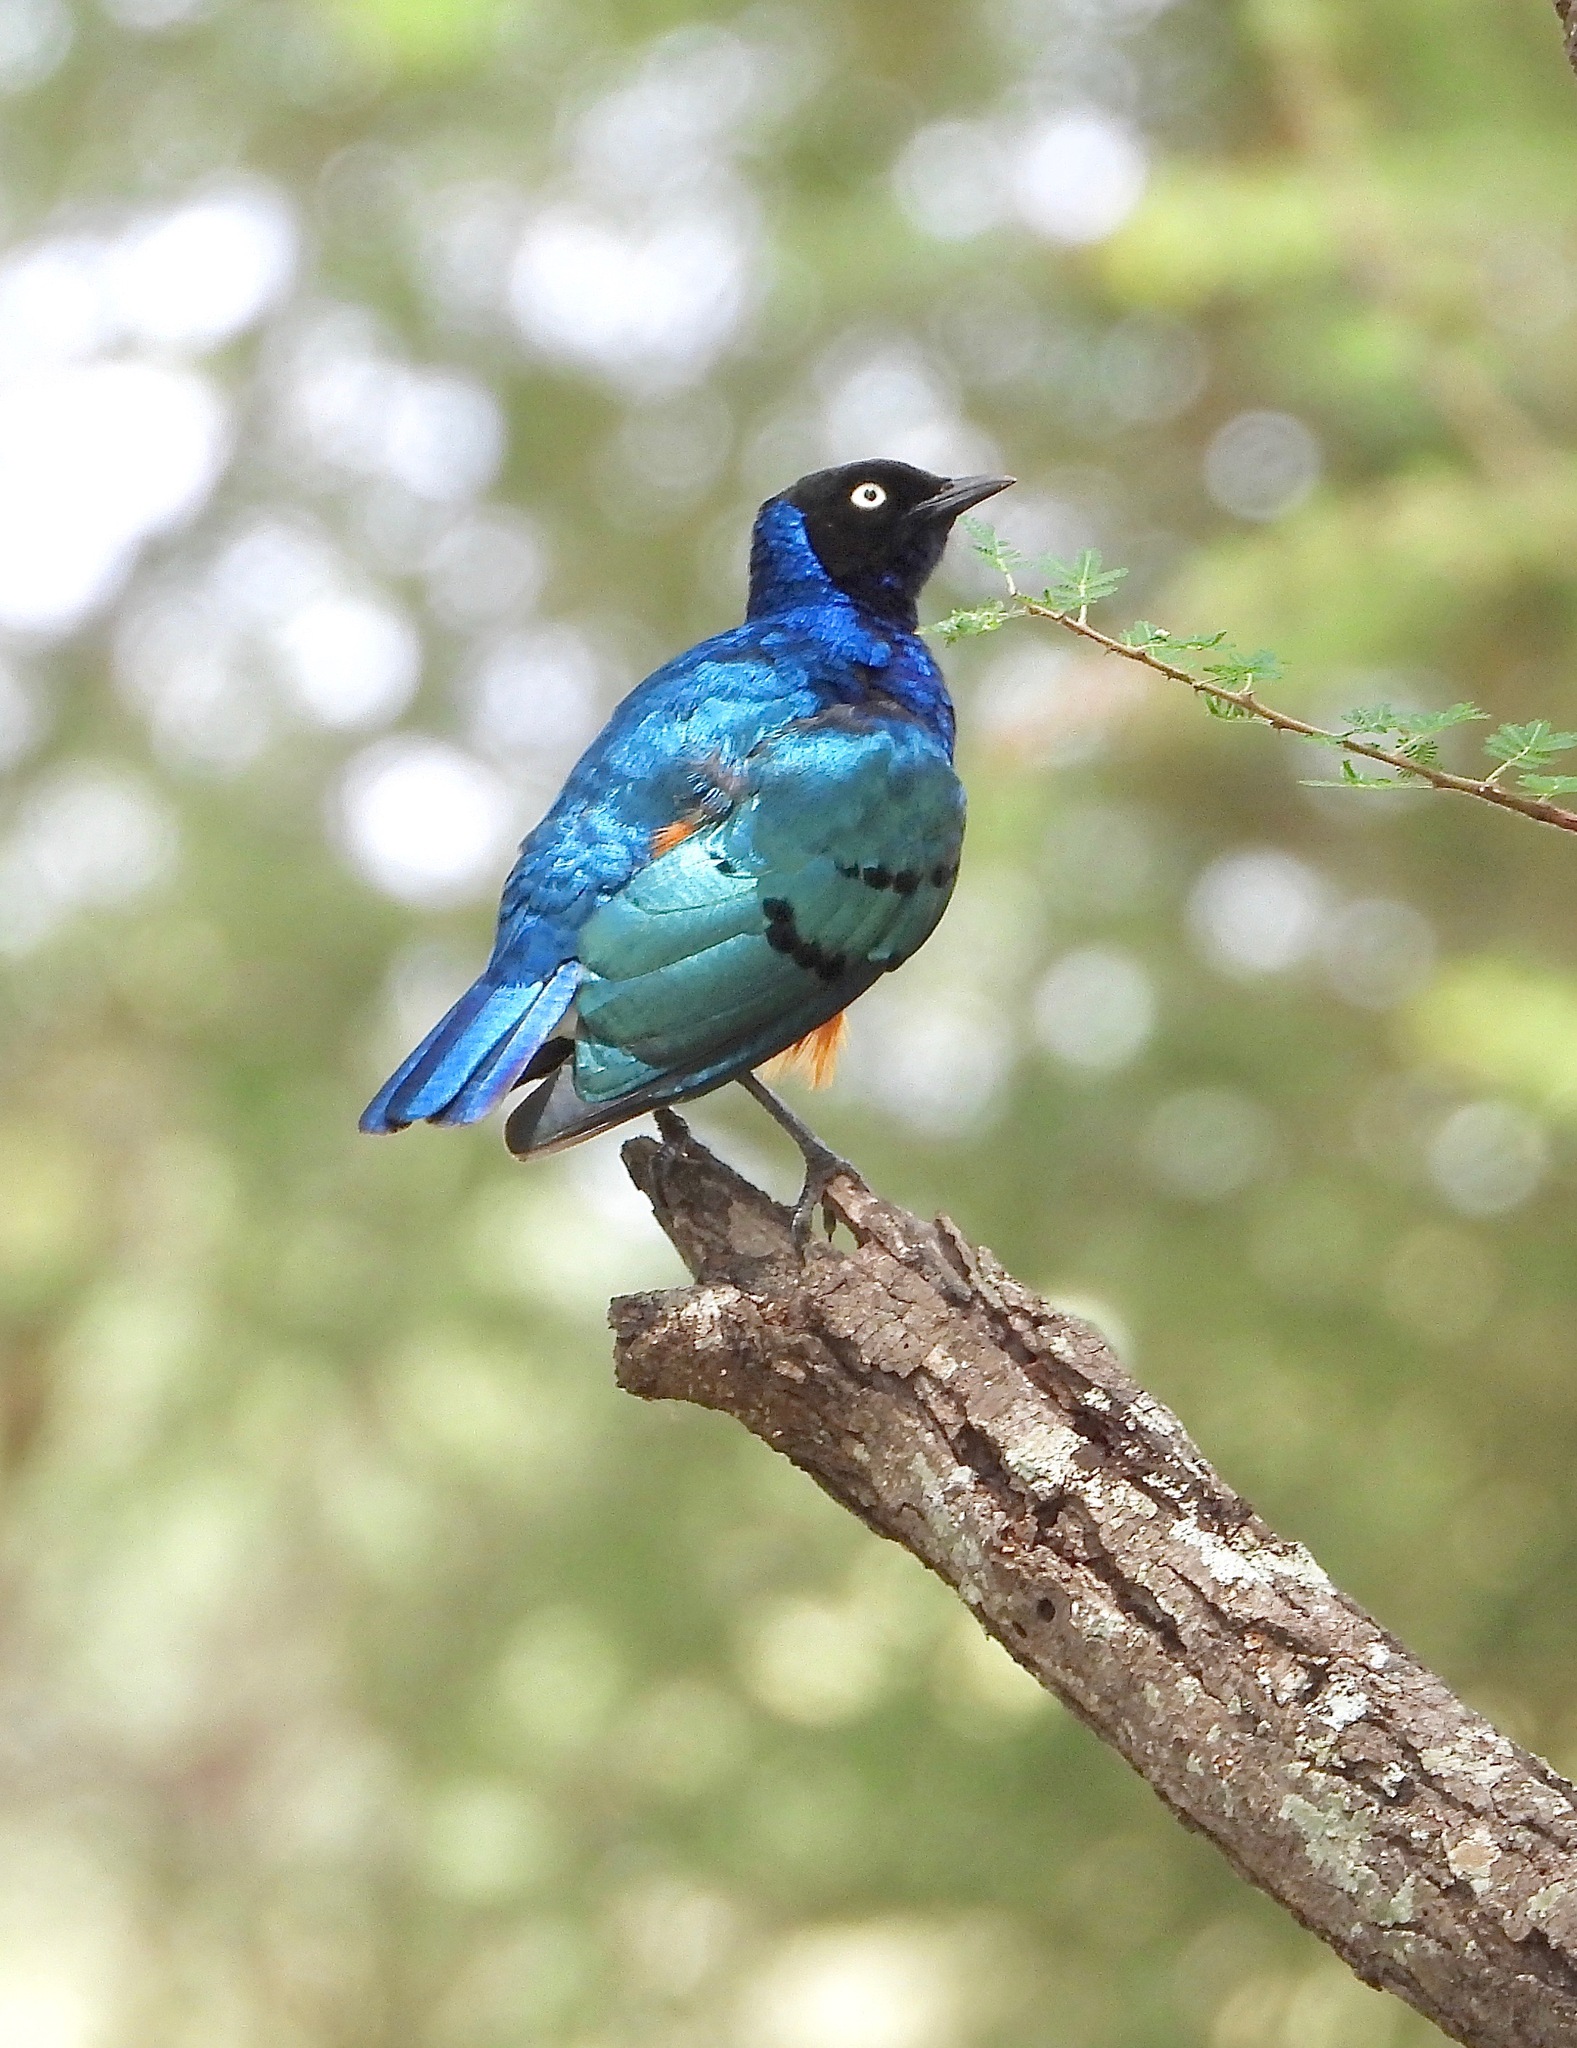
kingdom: Animalia
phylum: Chordata
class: Aves
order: Passeriformes
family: Sturnidae
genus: Lamprotornis
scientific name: Lamprotornis superbus
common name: Superb starling
